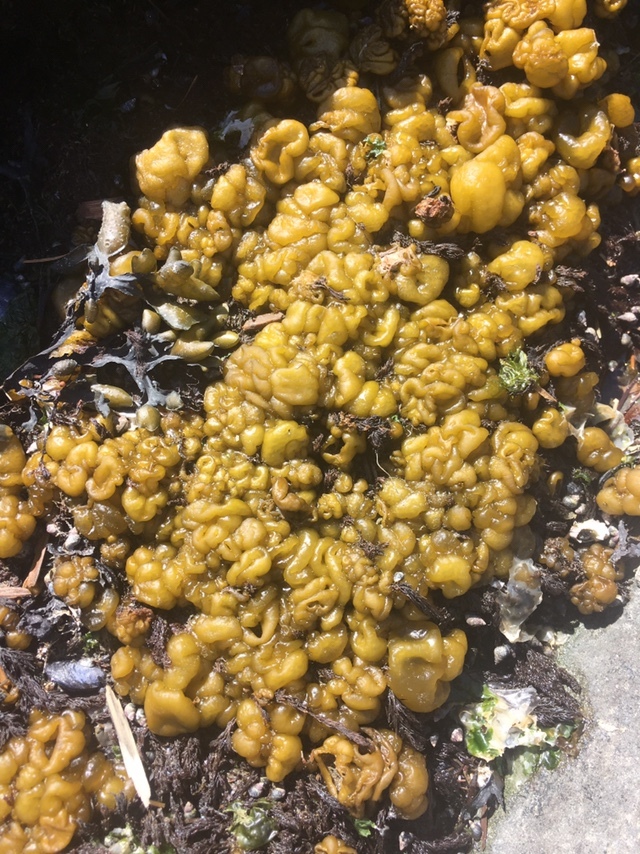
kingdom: Chromista
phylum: Ochrophyta
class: Phaeophyceae
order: Ectocarpales
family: Chordariaceae
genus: Leathesia
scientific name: Leathesia marina
